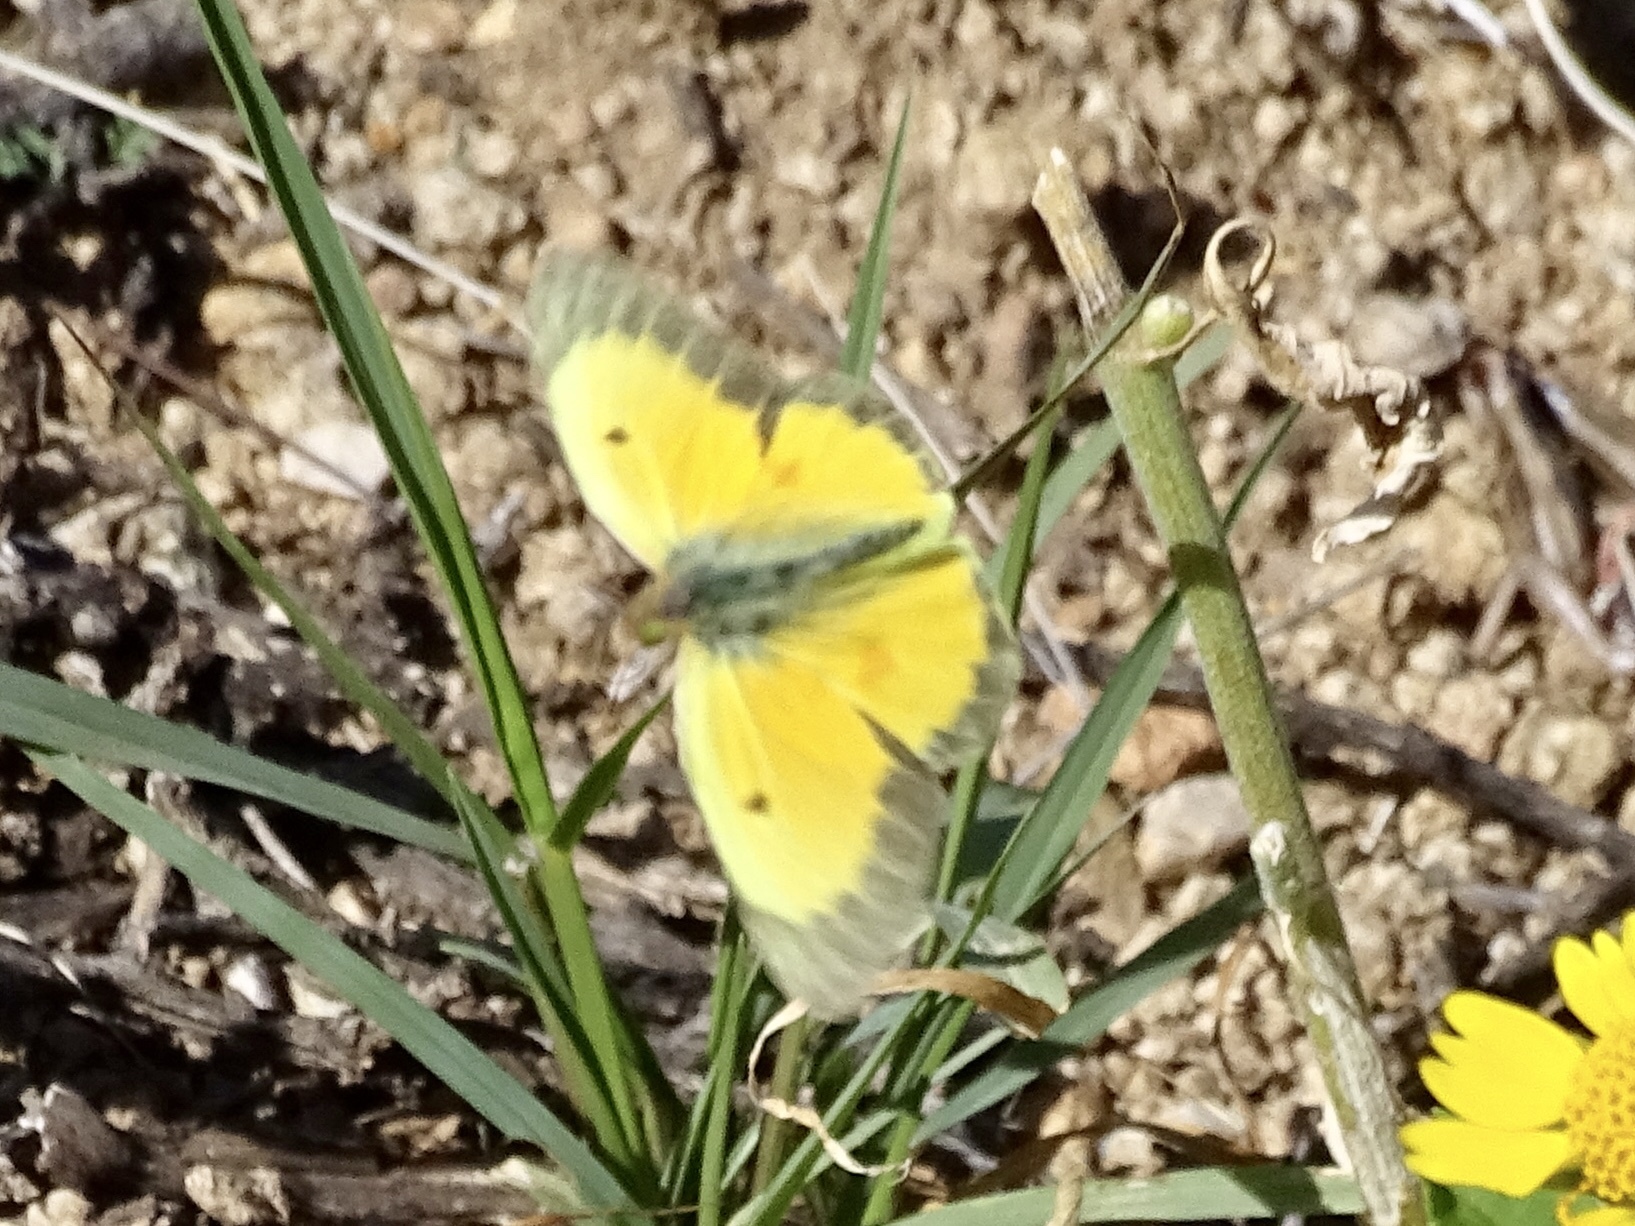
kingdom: Animalia
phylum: Arthropoda
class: Insecta
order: Lepidoptera
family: Pieridae
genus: Colias
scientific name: Colias eurytheme
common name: Alfalfa butterfly
